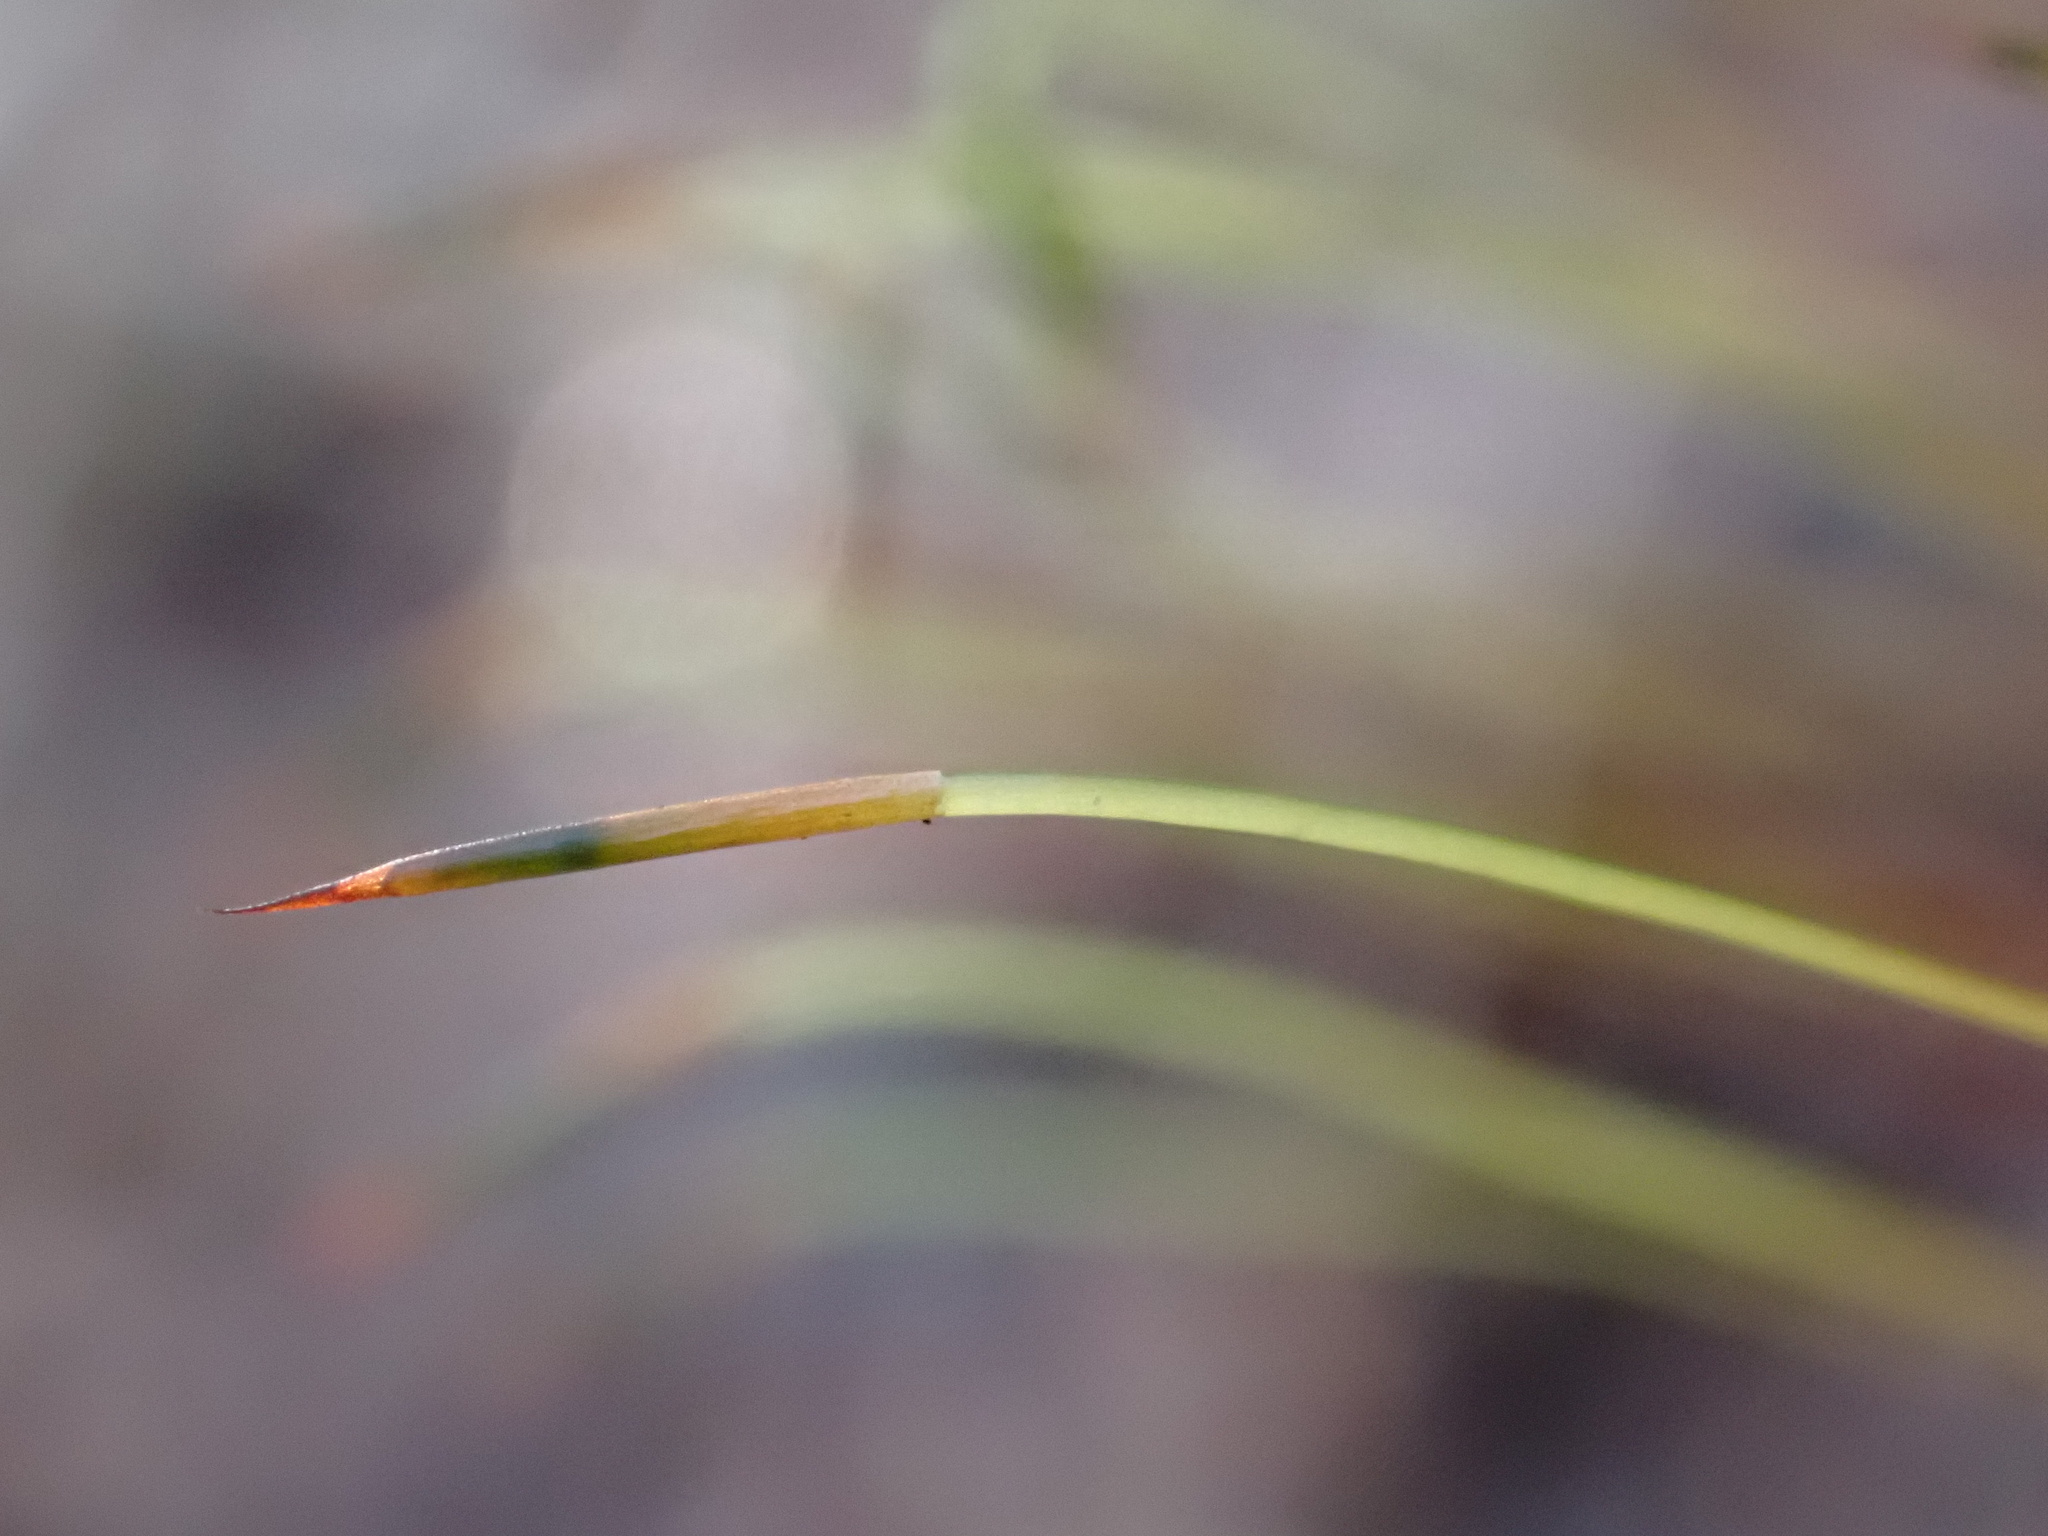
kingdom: Plantae
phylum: Bryophyta
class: Bryopsida
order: Bryales
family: Mniaceae
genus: Mnium
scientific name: Mnium hornum
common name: Swan's-neck leafy moss
